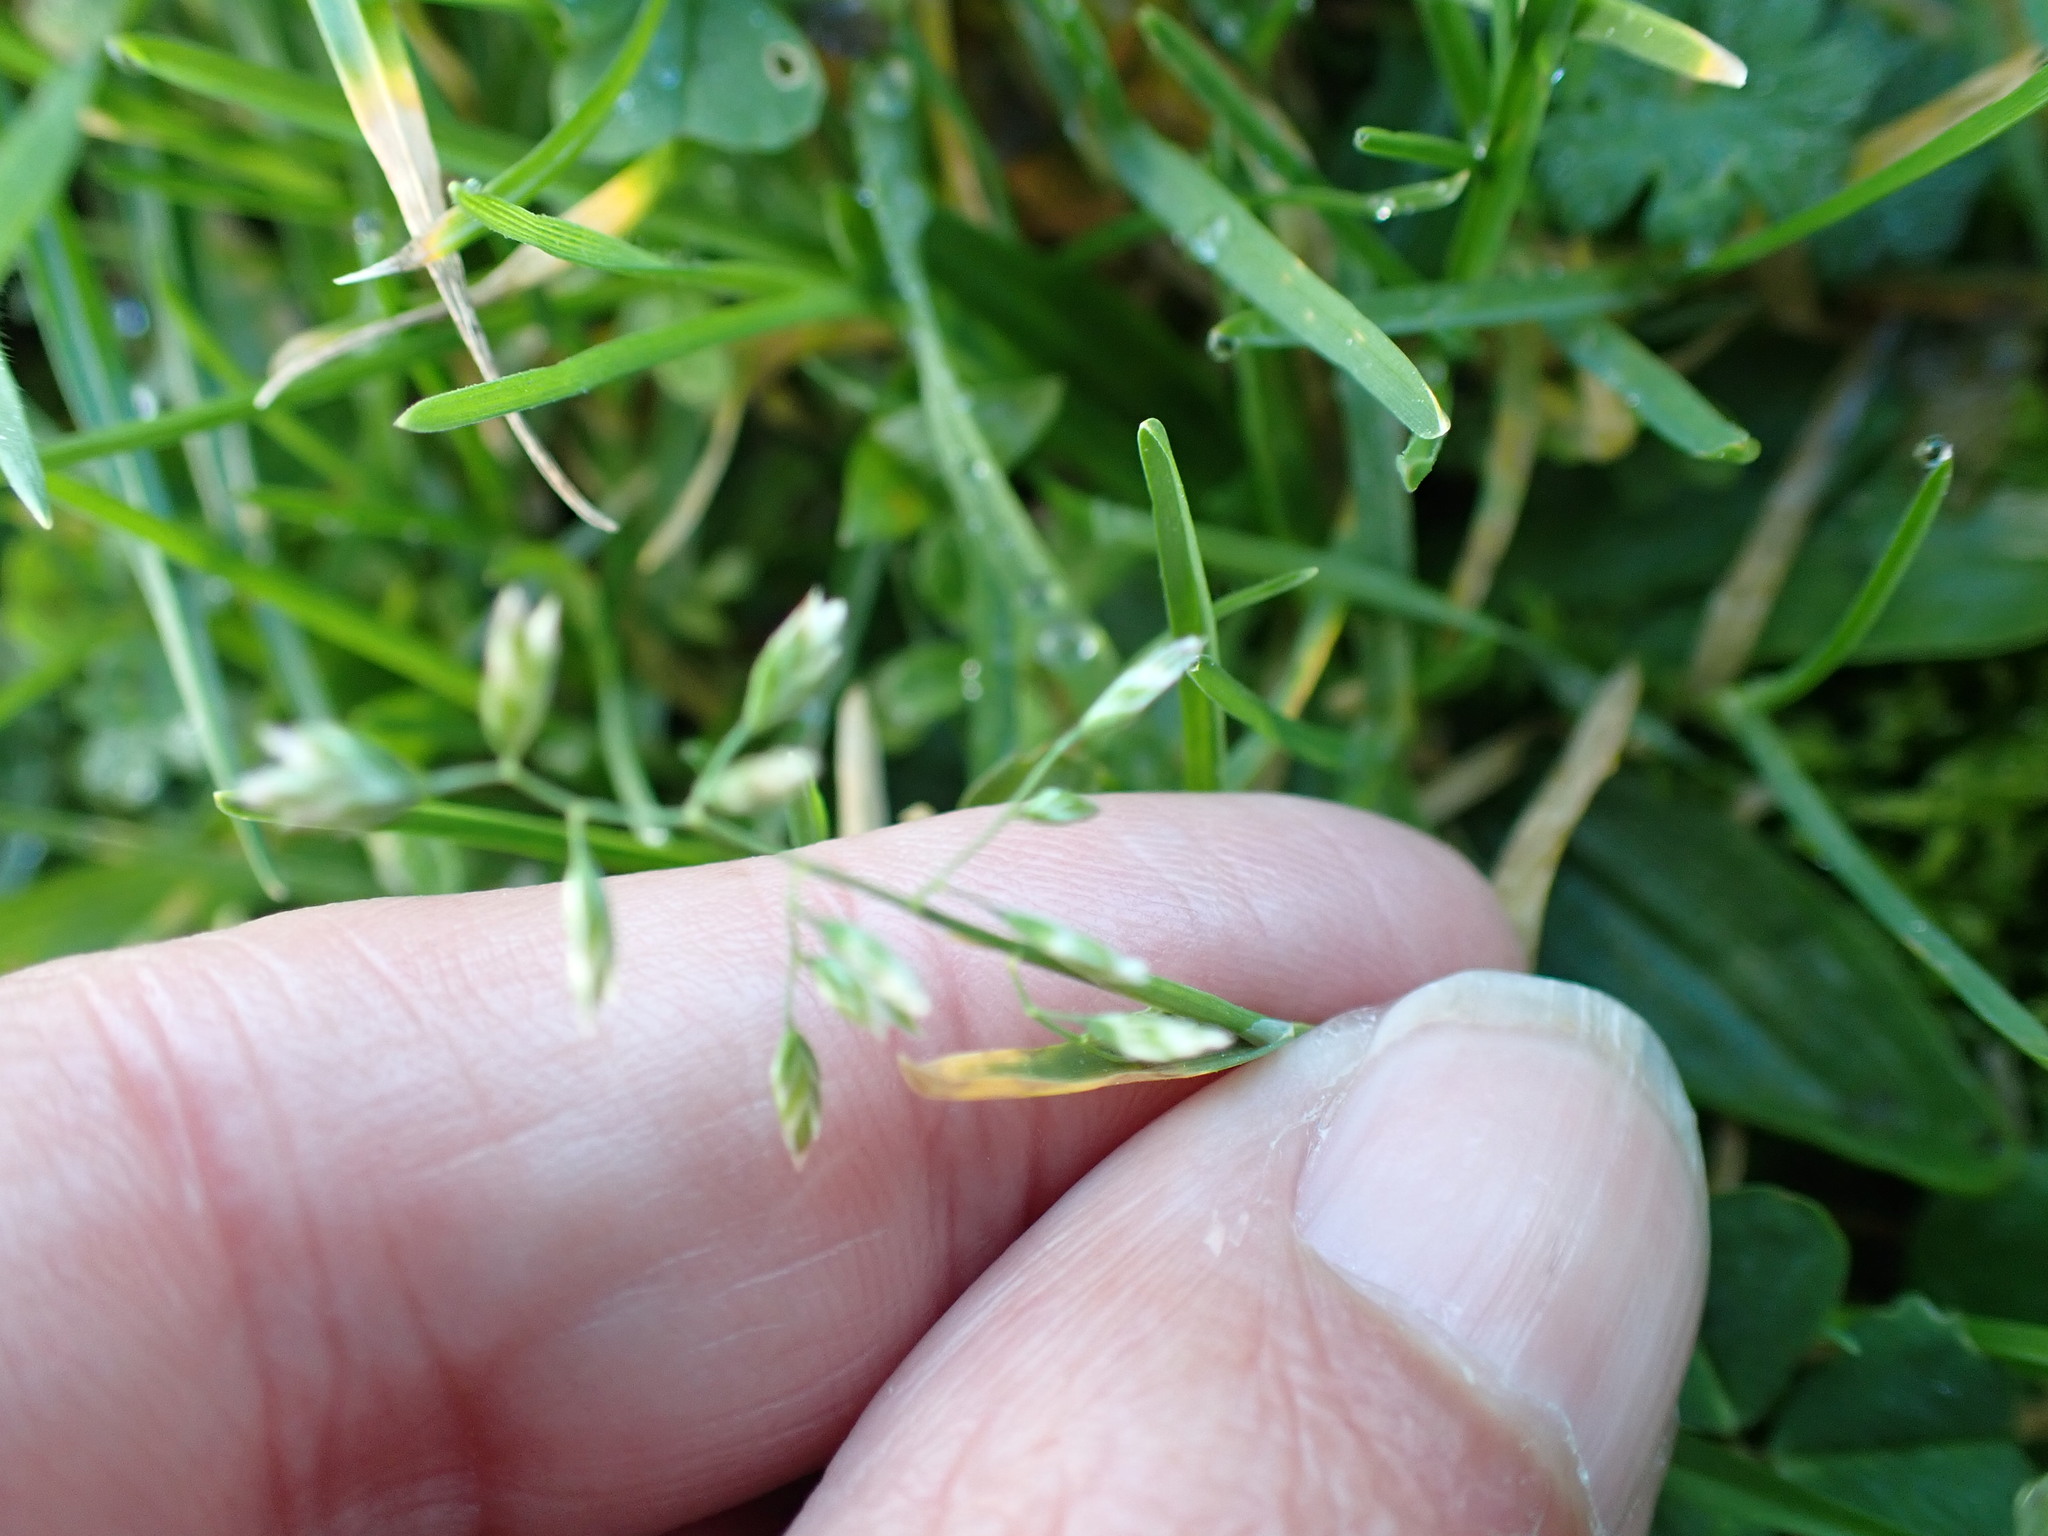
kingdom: Plantae
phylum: Tracheophyta
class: Liliopsida
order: Poales
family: Poaceae
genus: Poa
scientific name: Poa annua
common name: Annual bluegrass
